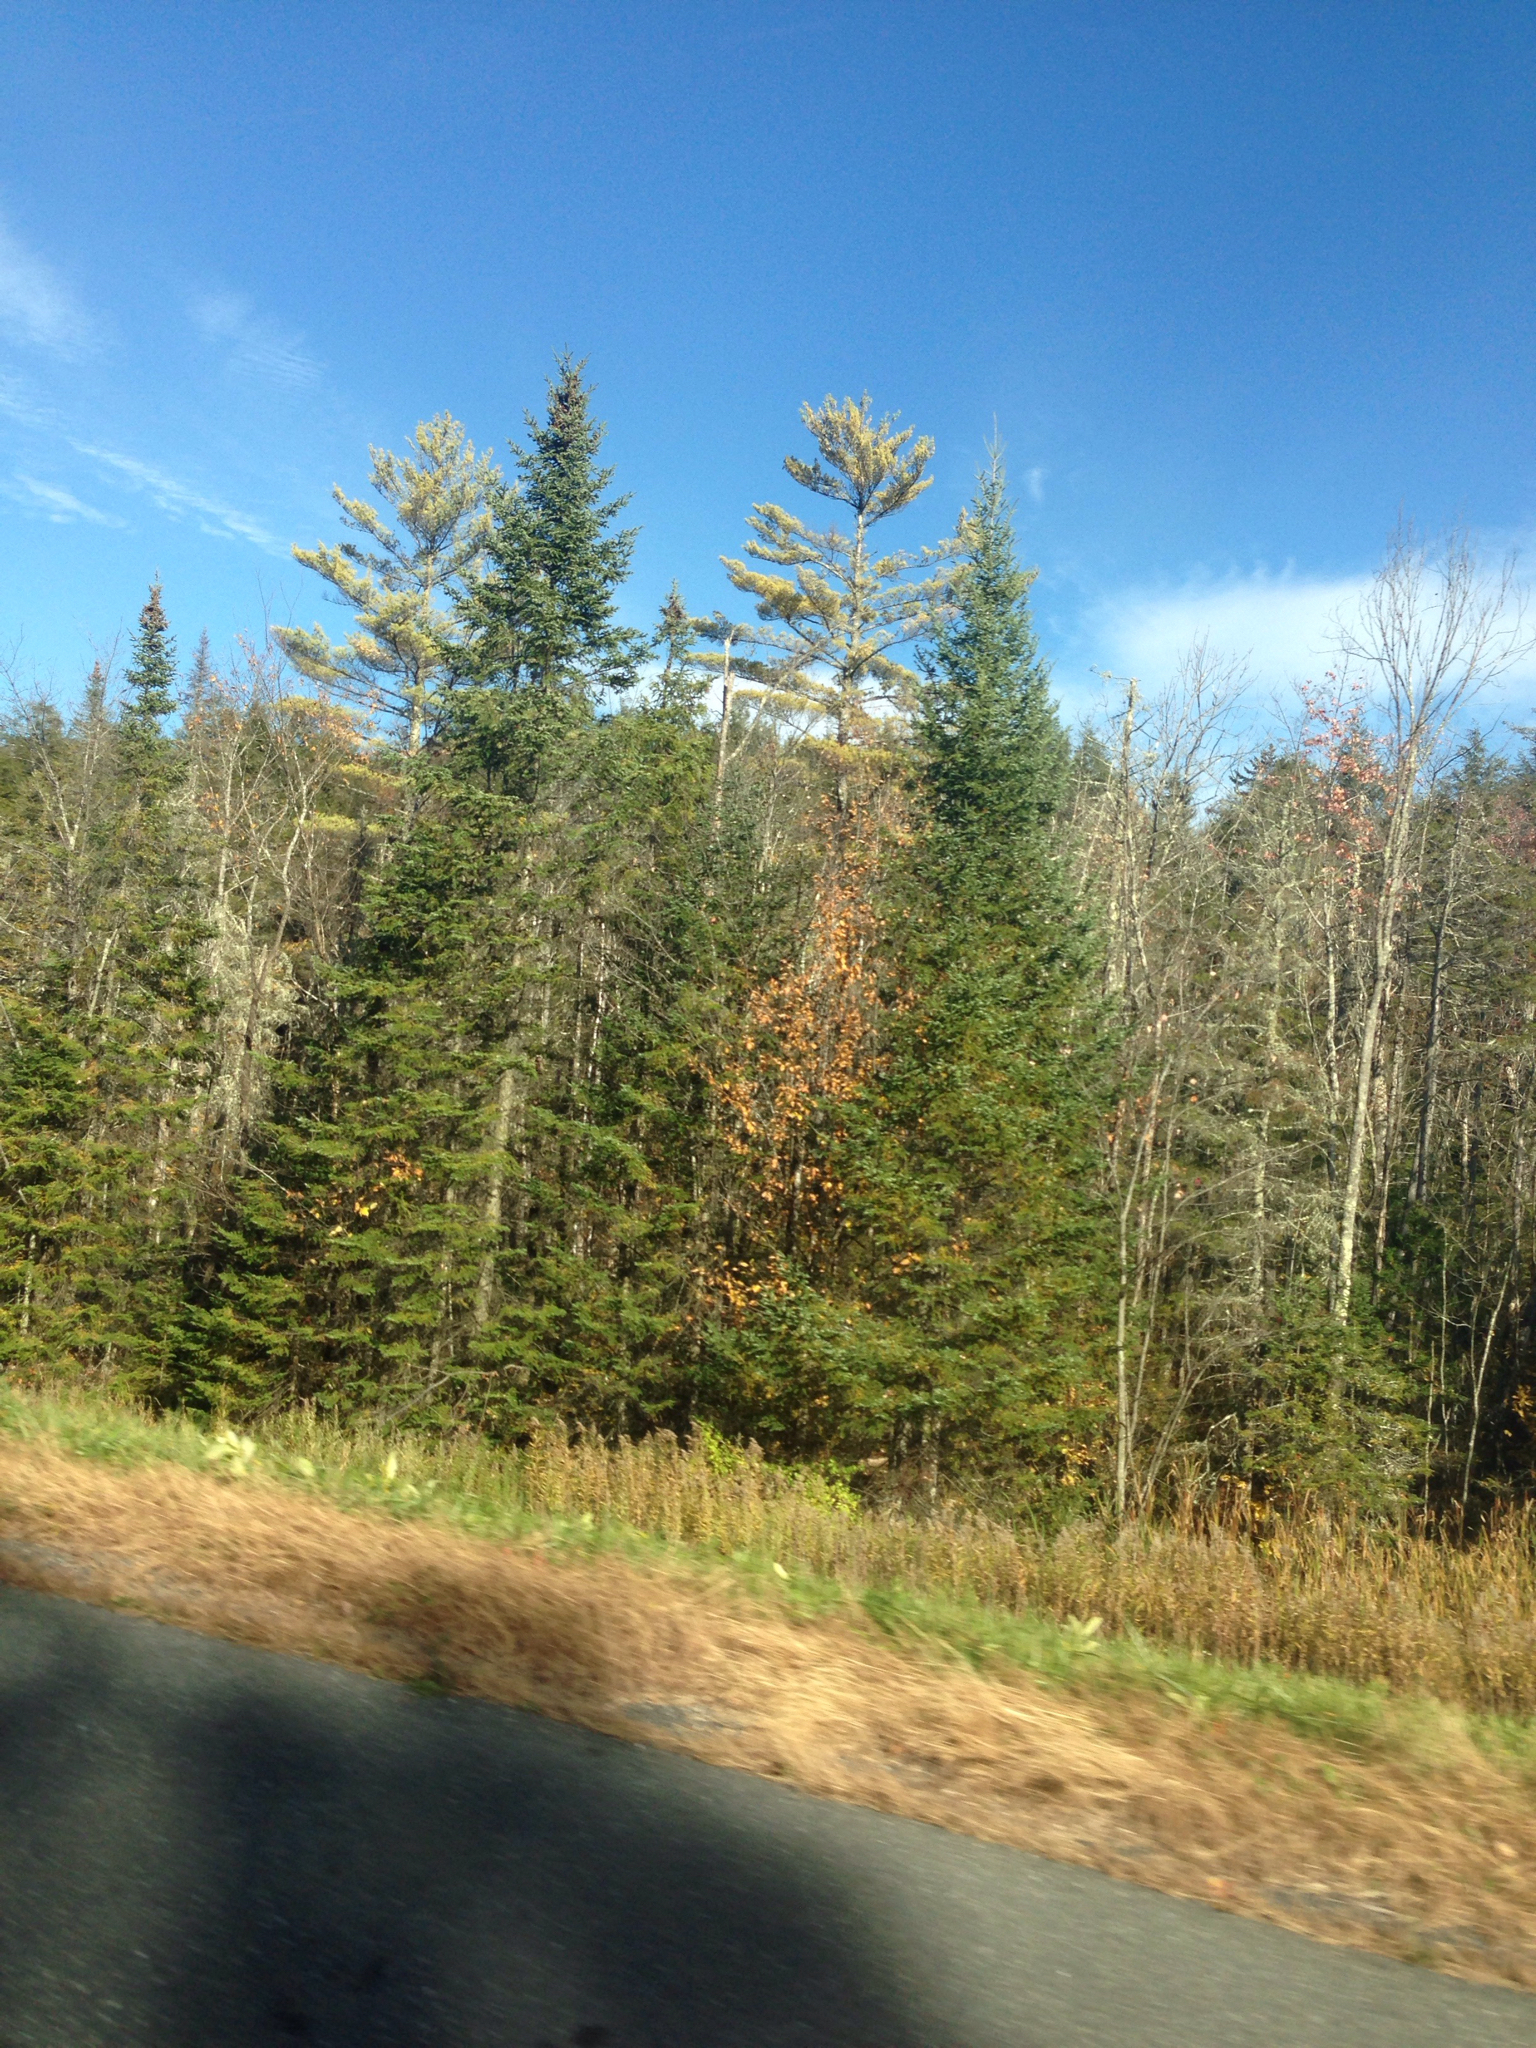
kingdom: Plantae
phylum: Tracheophyta
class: Pinopsida
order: Pinales
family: Pinaceae
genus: Abies
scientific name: Abies balsamea
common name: Balsam fir
